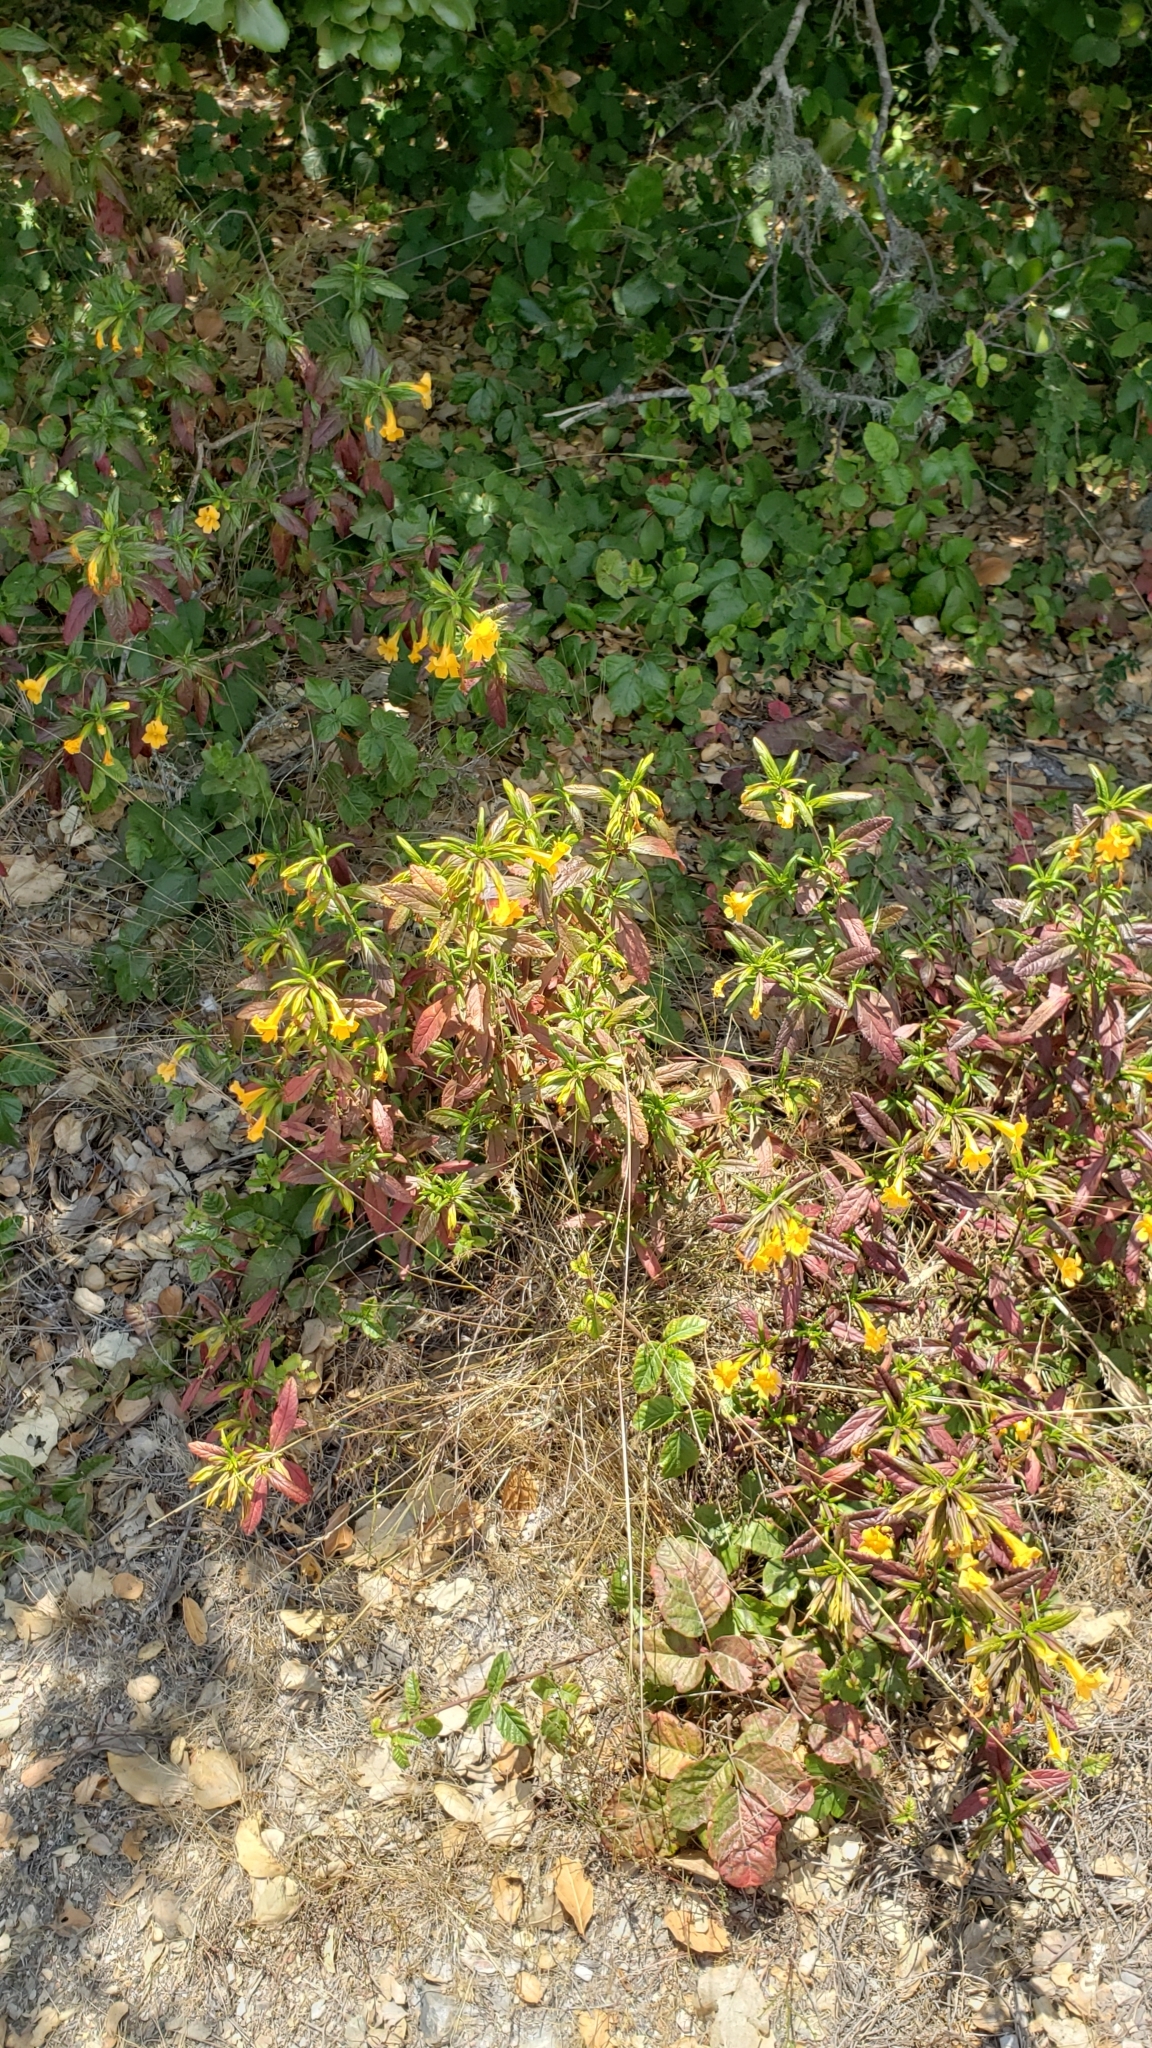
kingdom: Plantae
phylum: Tracheophyta
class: Magnoliopsida
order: Lamiales
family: Phrymaceae
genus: Diplacus
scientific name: Diplacus aurantiacus
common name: Bush monkey-flower
